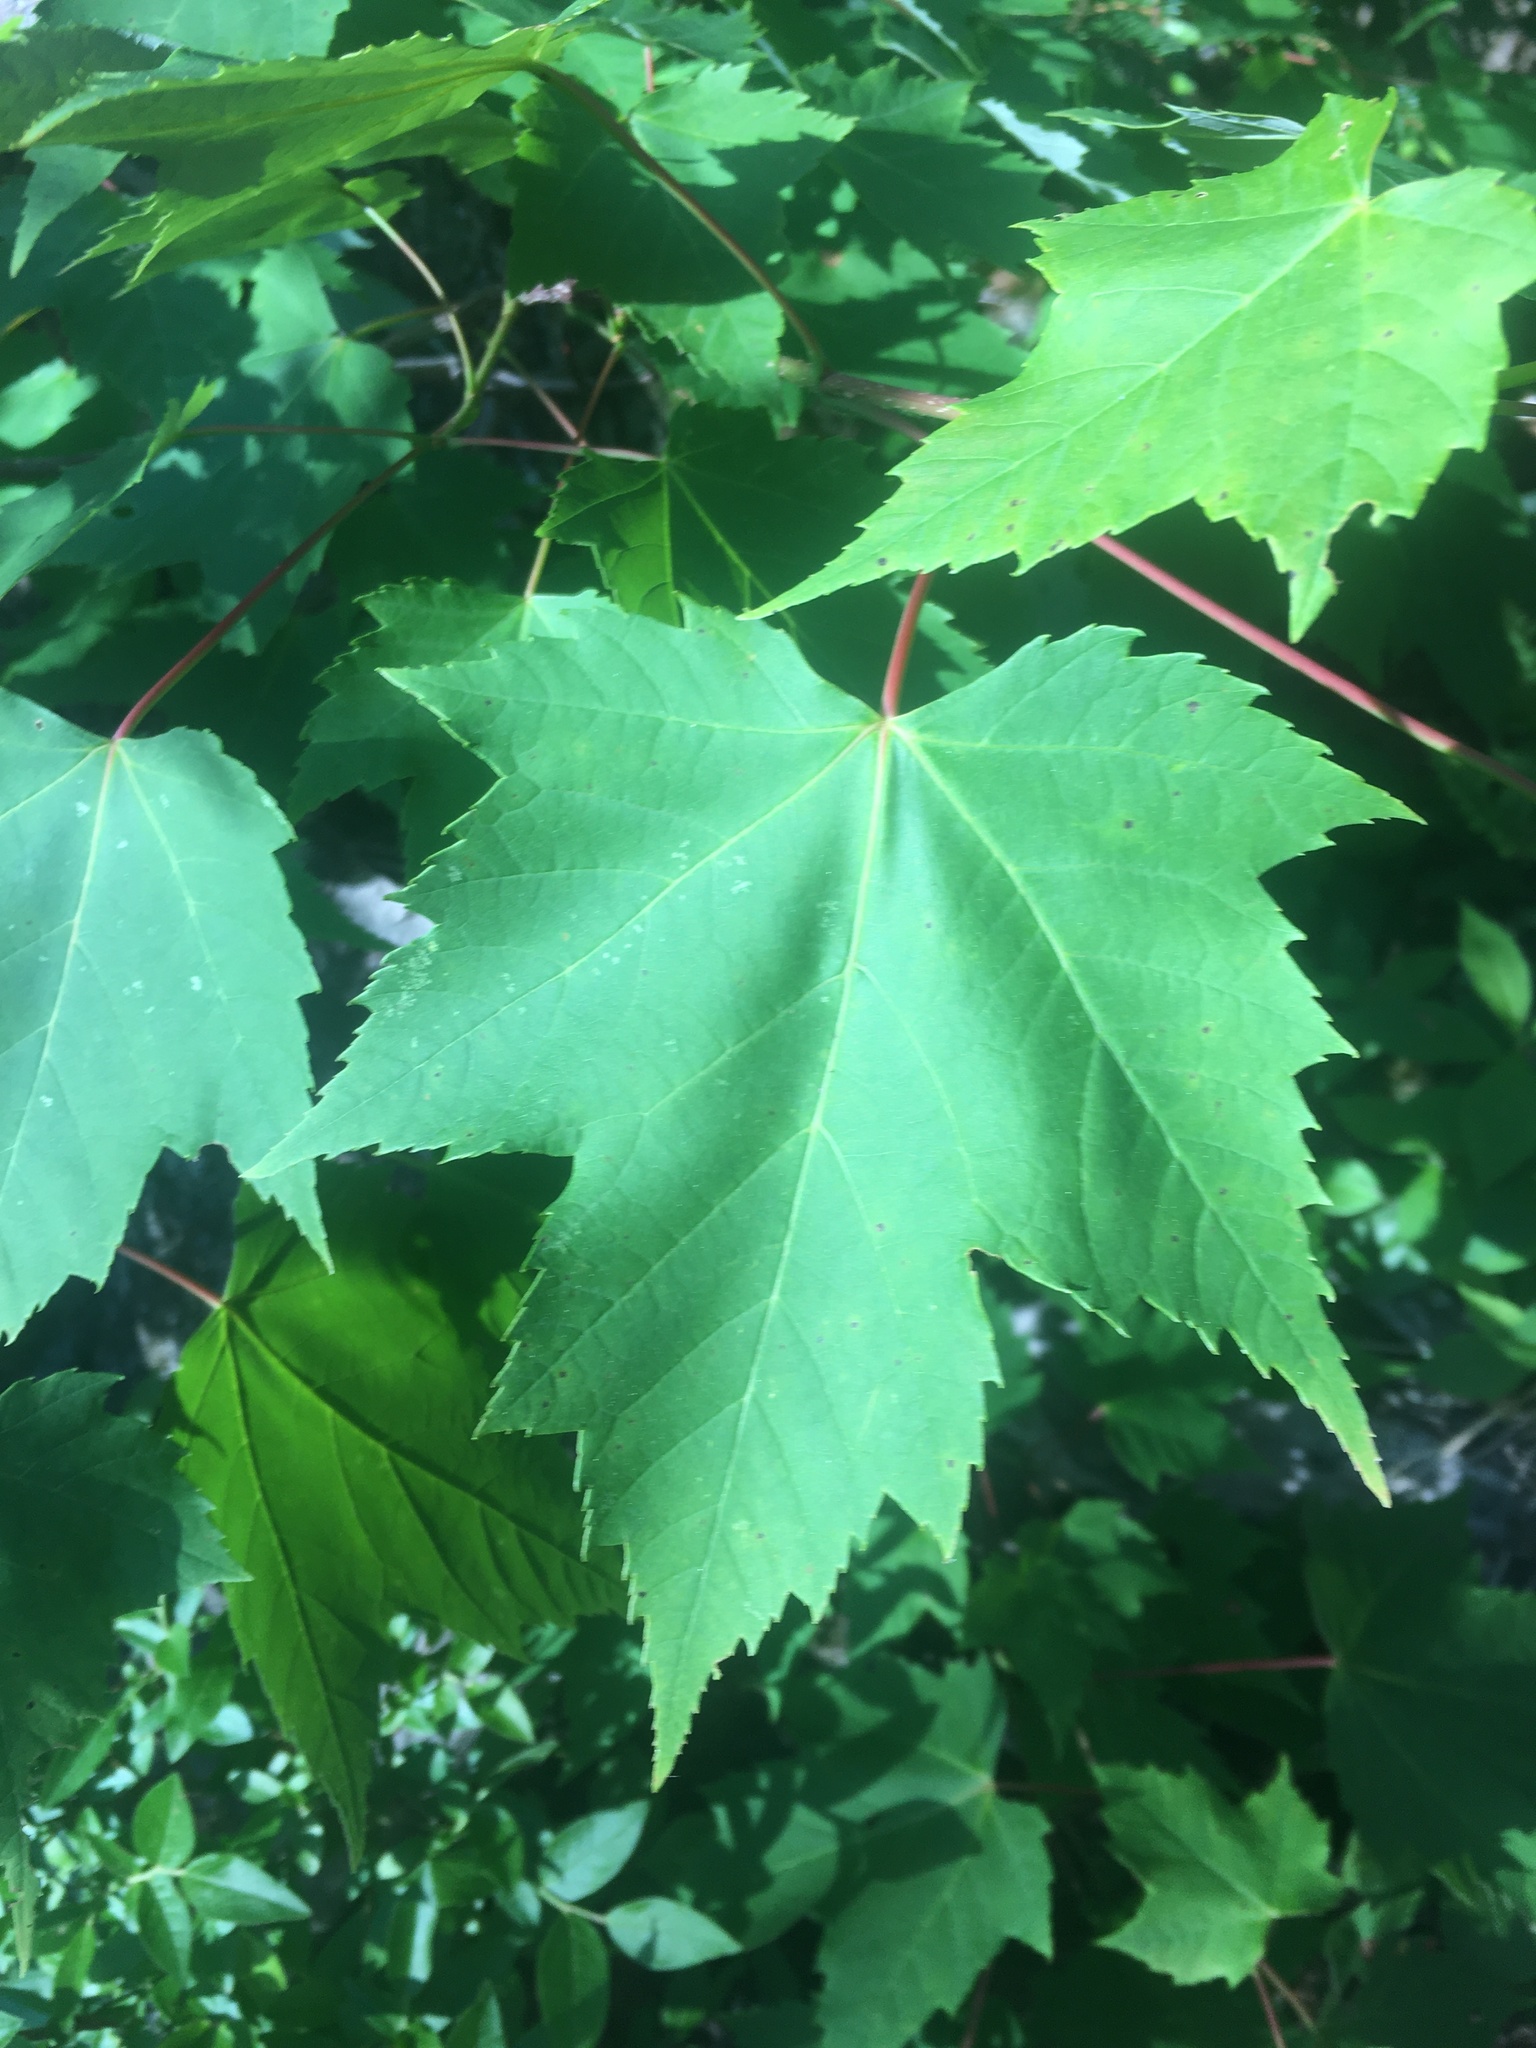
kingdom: Plantae
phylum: Tracheophyta
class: Magnoliopsida
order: Sapindales
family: Sapindaceae
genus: Acer
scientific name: Acer rubrum
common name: Red maple
